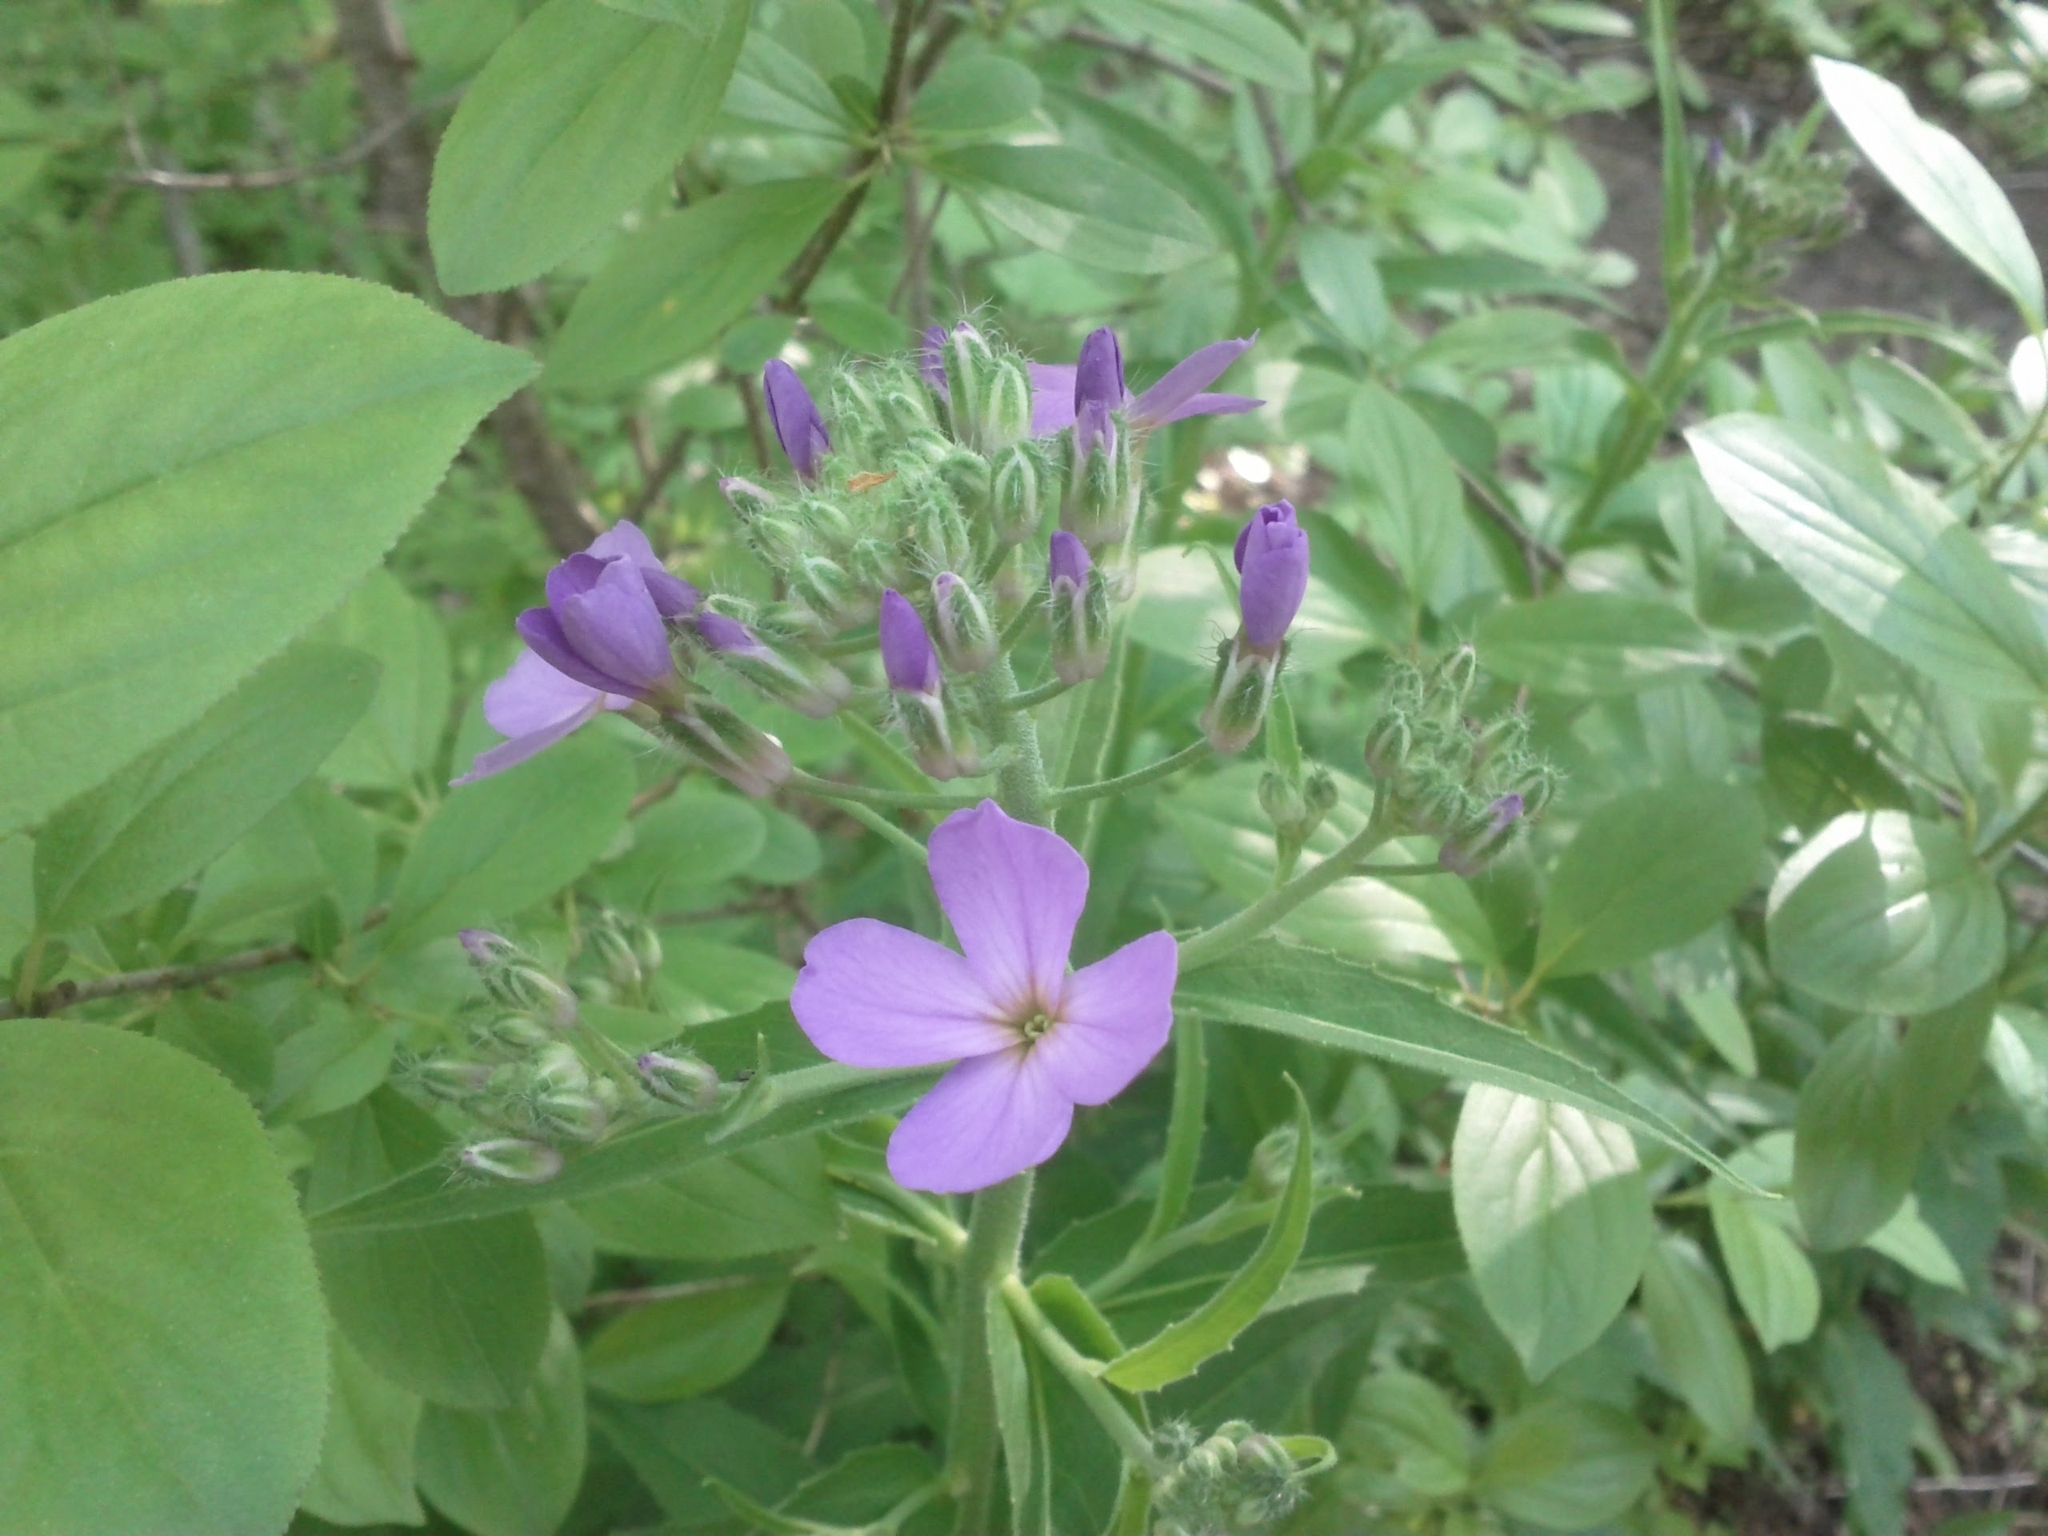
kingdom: Plantae
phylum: Tracheophyta
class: Magnoliopsida
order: Brassicales
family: Brassicaceae
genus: Hesperis
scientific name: Hesperis matronalis
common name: Dame's-violet
